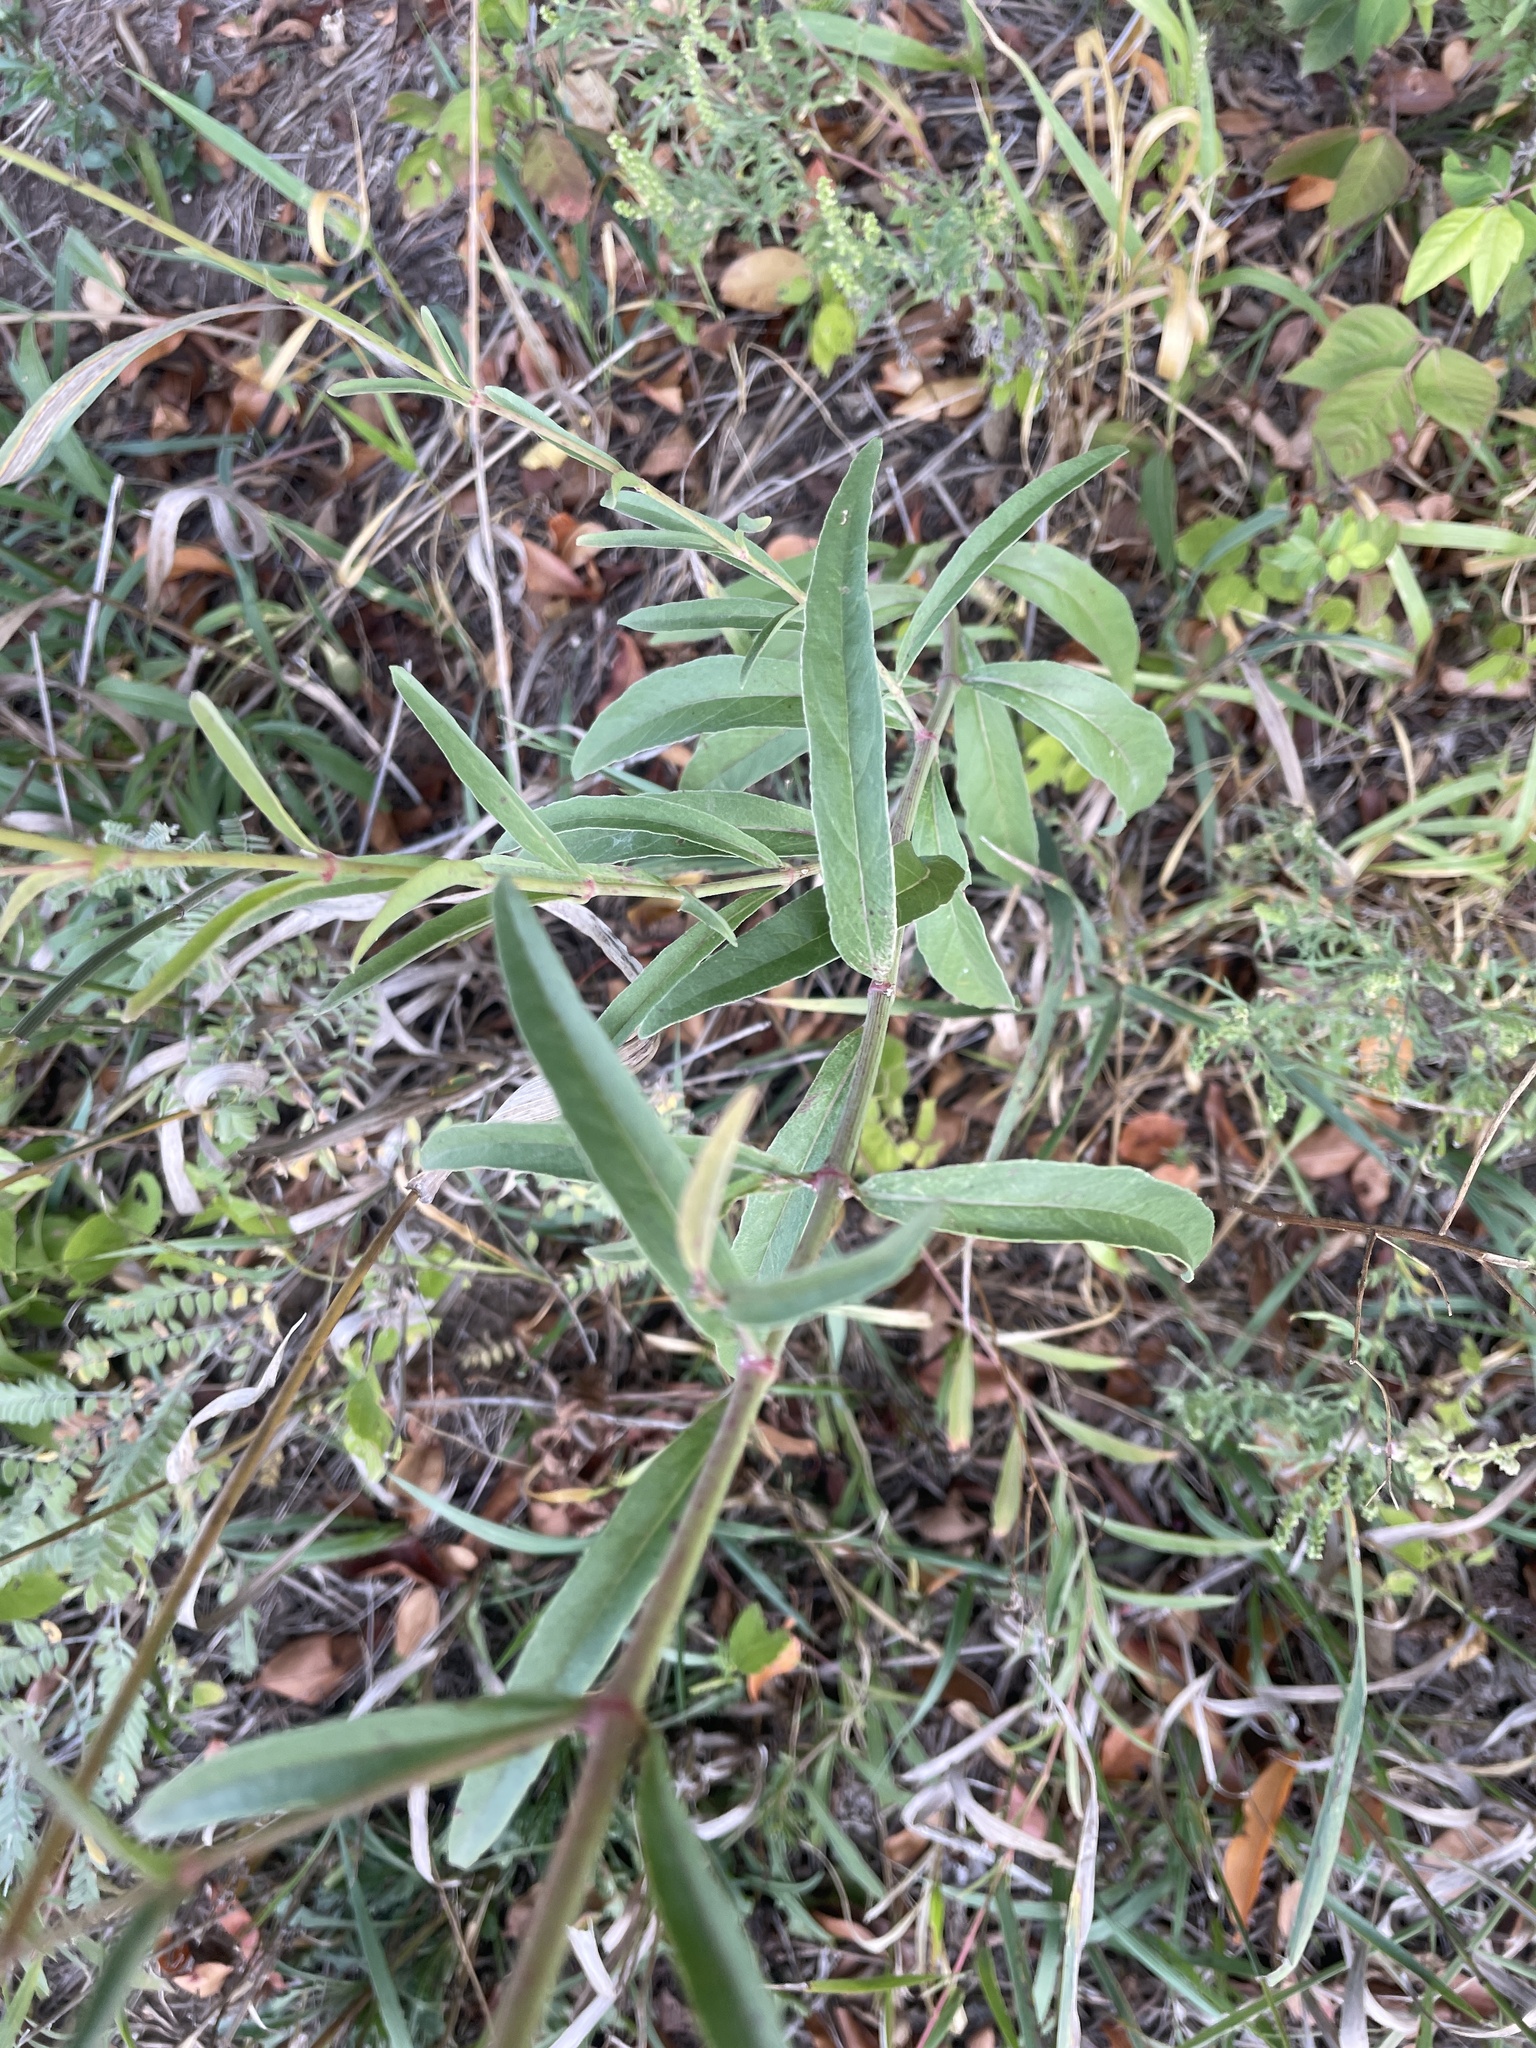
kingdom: Plantae
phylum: Tracheophyta
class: Magnoliopsida
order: Caryophyllales
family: Nyctaginaceae
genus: Mirabilis
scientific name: Mirabilis nyctaginea
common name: Umbrella wort
